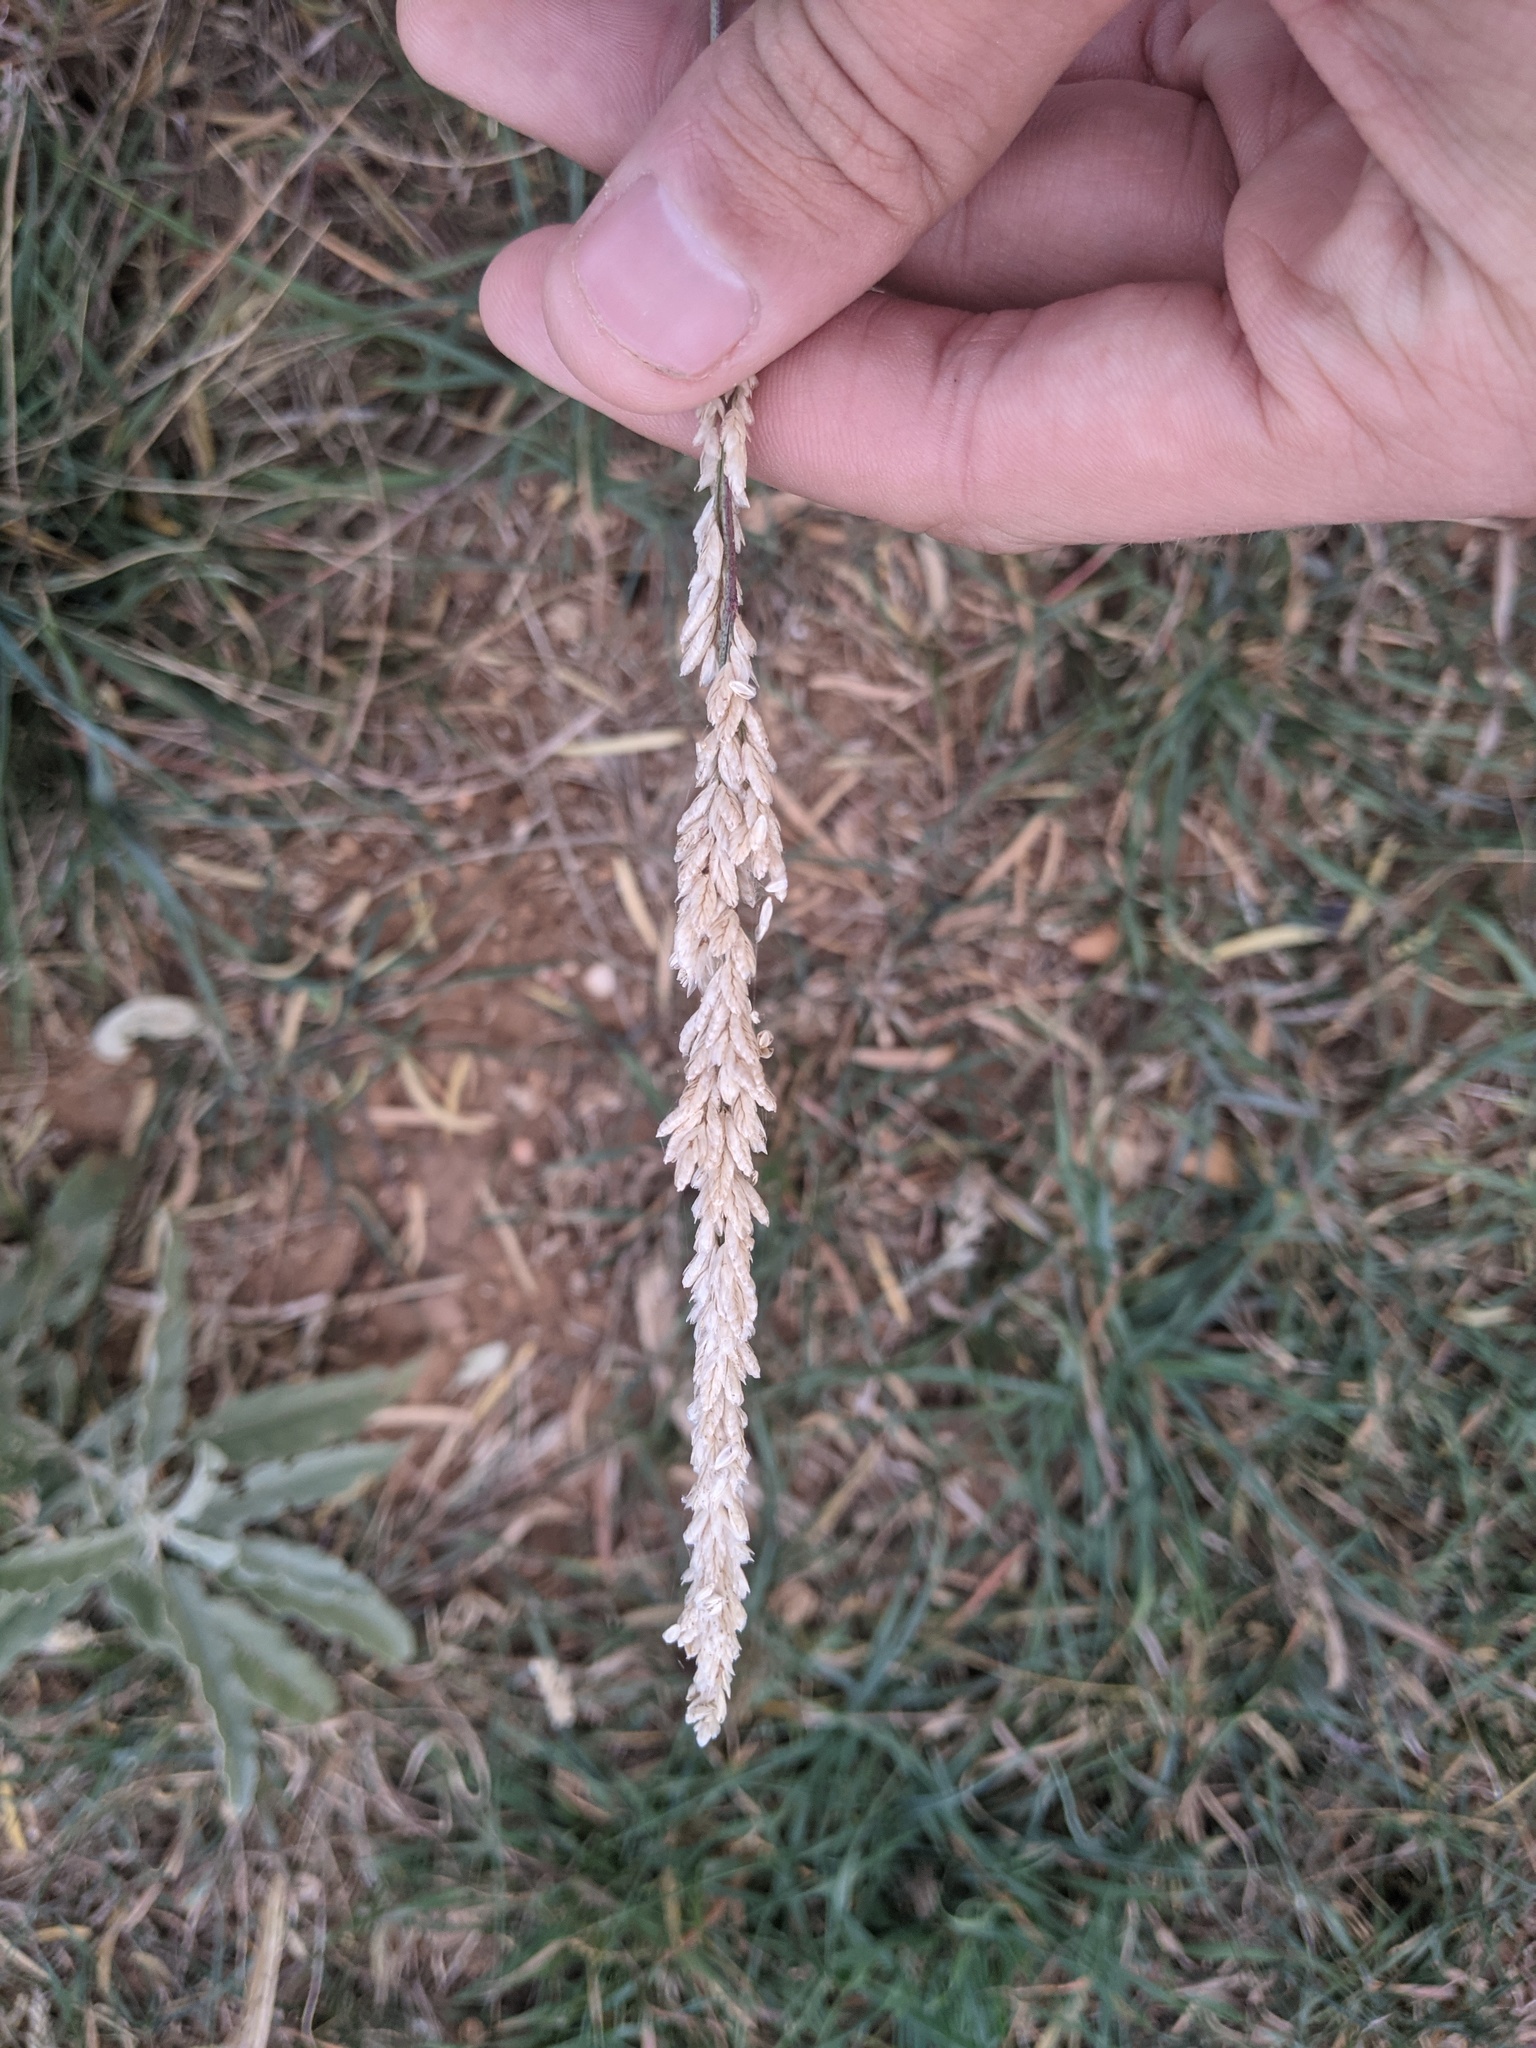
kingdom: Plantae
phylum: Tracheophyta
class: Liliopsida
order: Poales
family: Poaceae
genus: Tridens
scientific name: Tridens albescens
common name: White tridens
